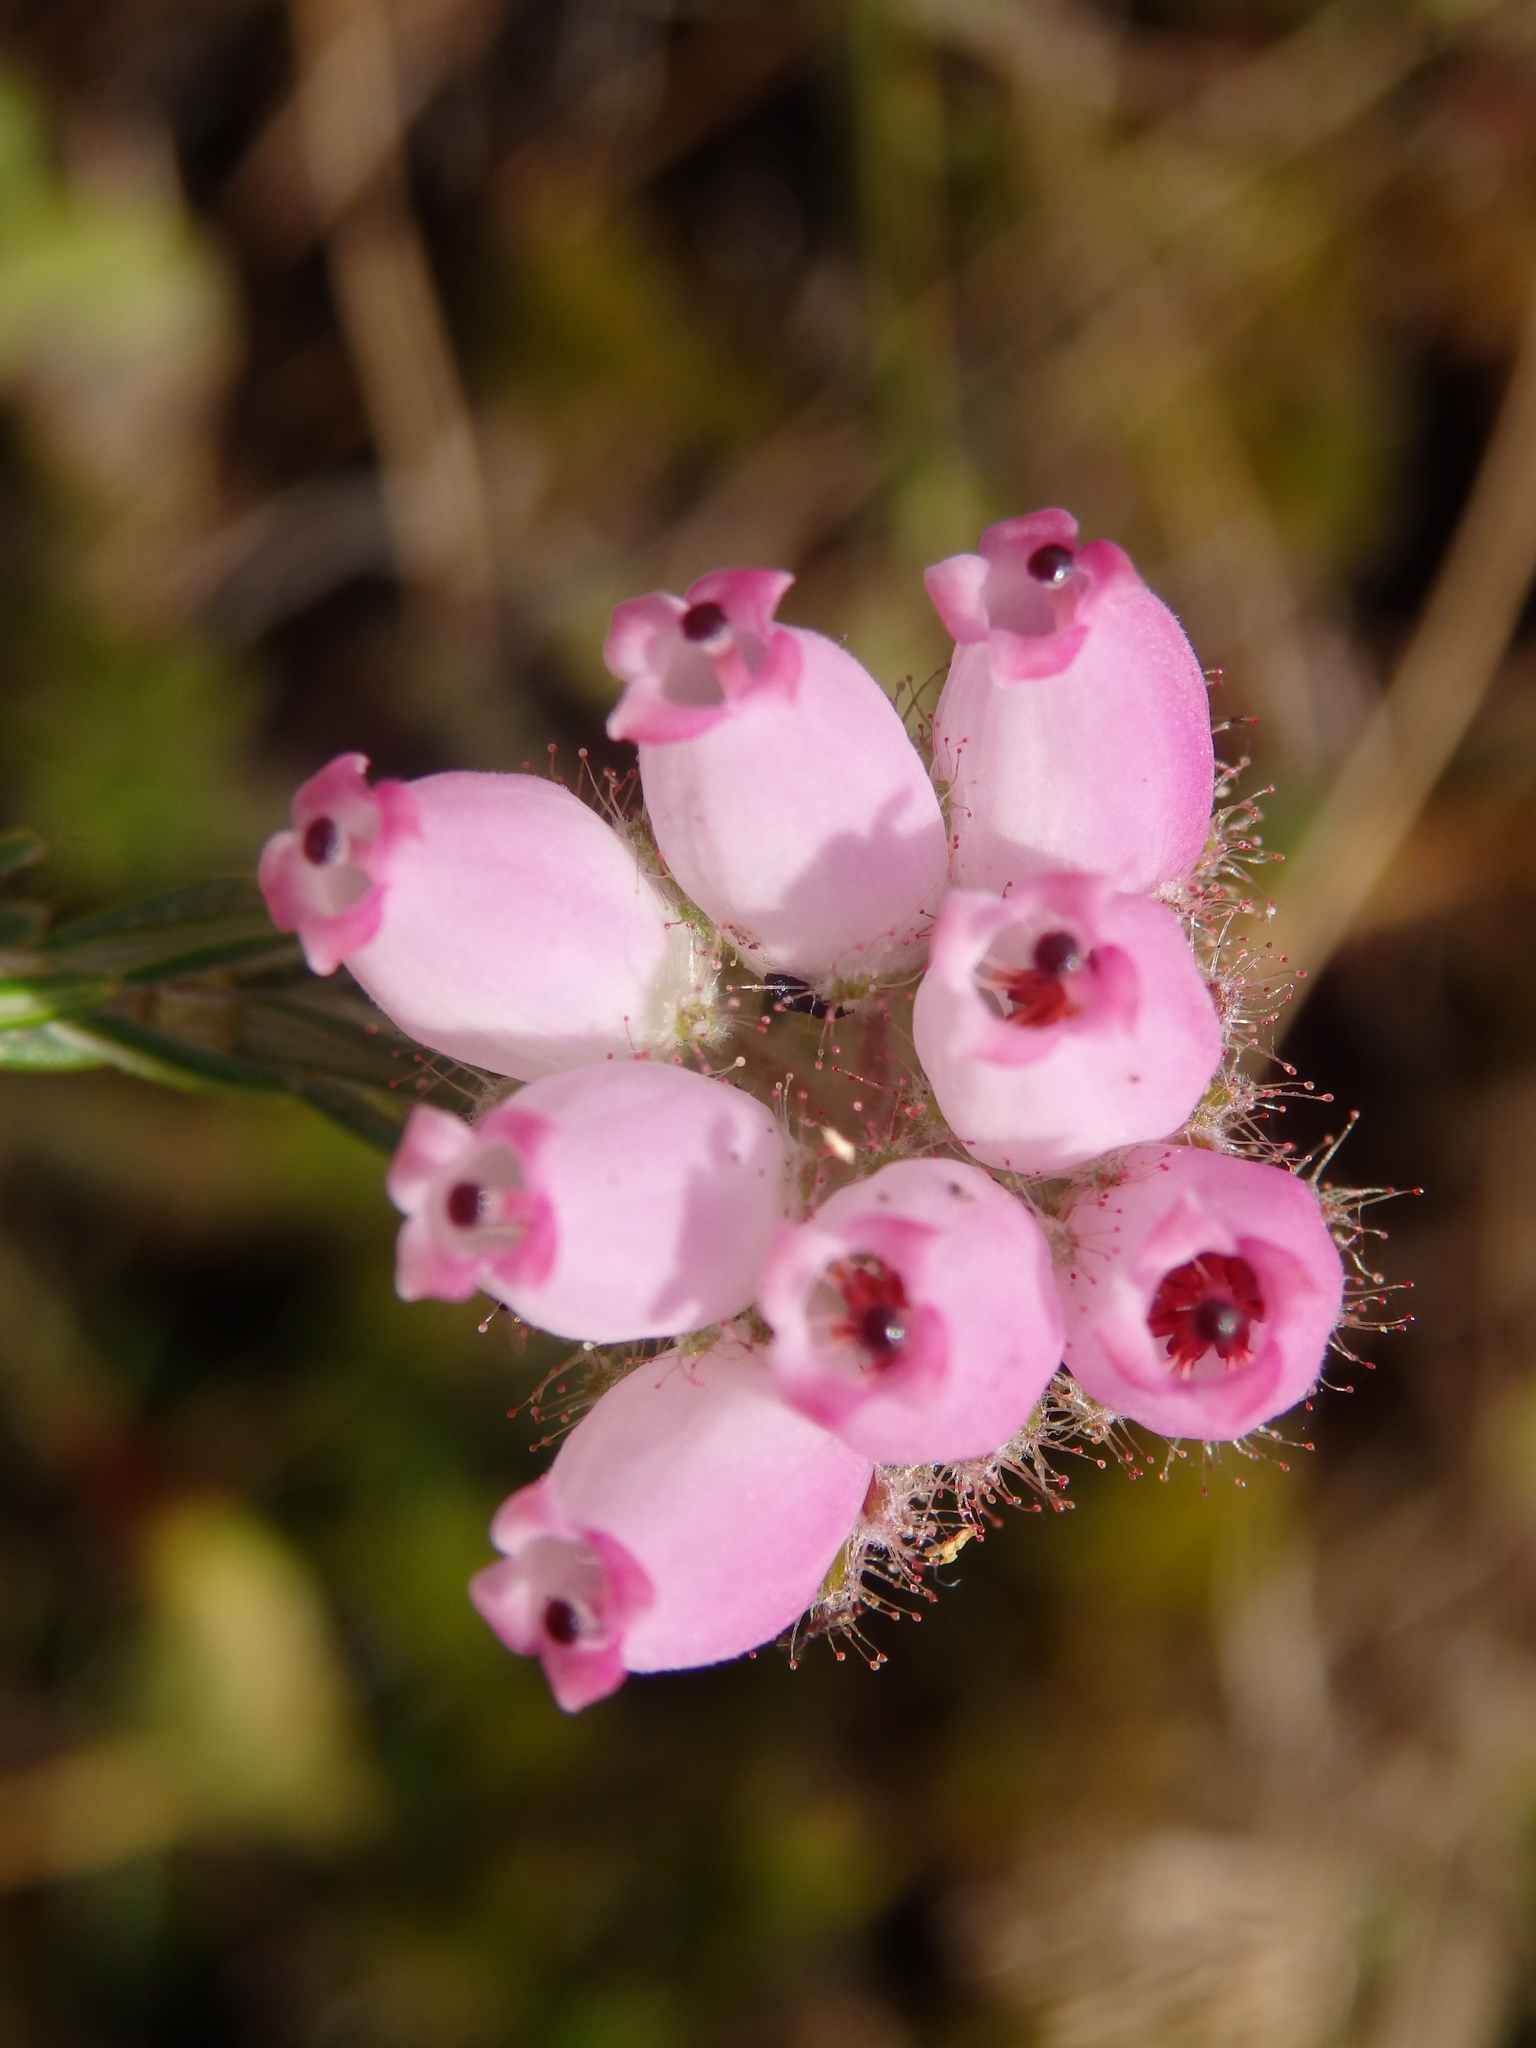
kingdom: Plantae
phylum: Tracheophyta
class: Magnoliopsida
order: Ericales
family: Ericaceae
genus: Erica
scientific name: Erica tetralix
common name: Cross-leaved heath
